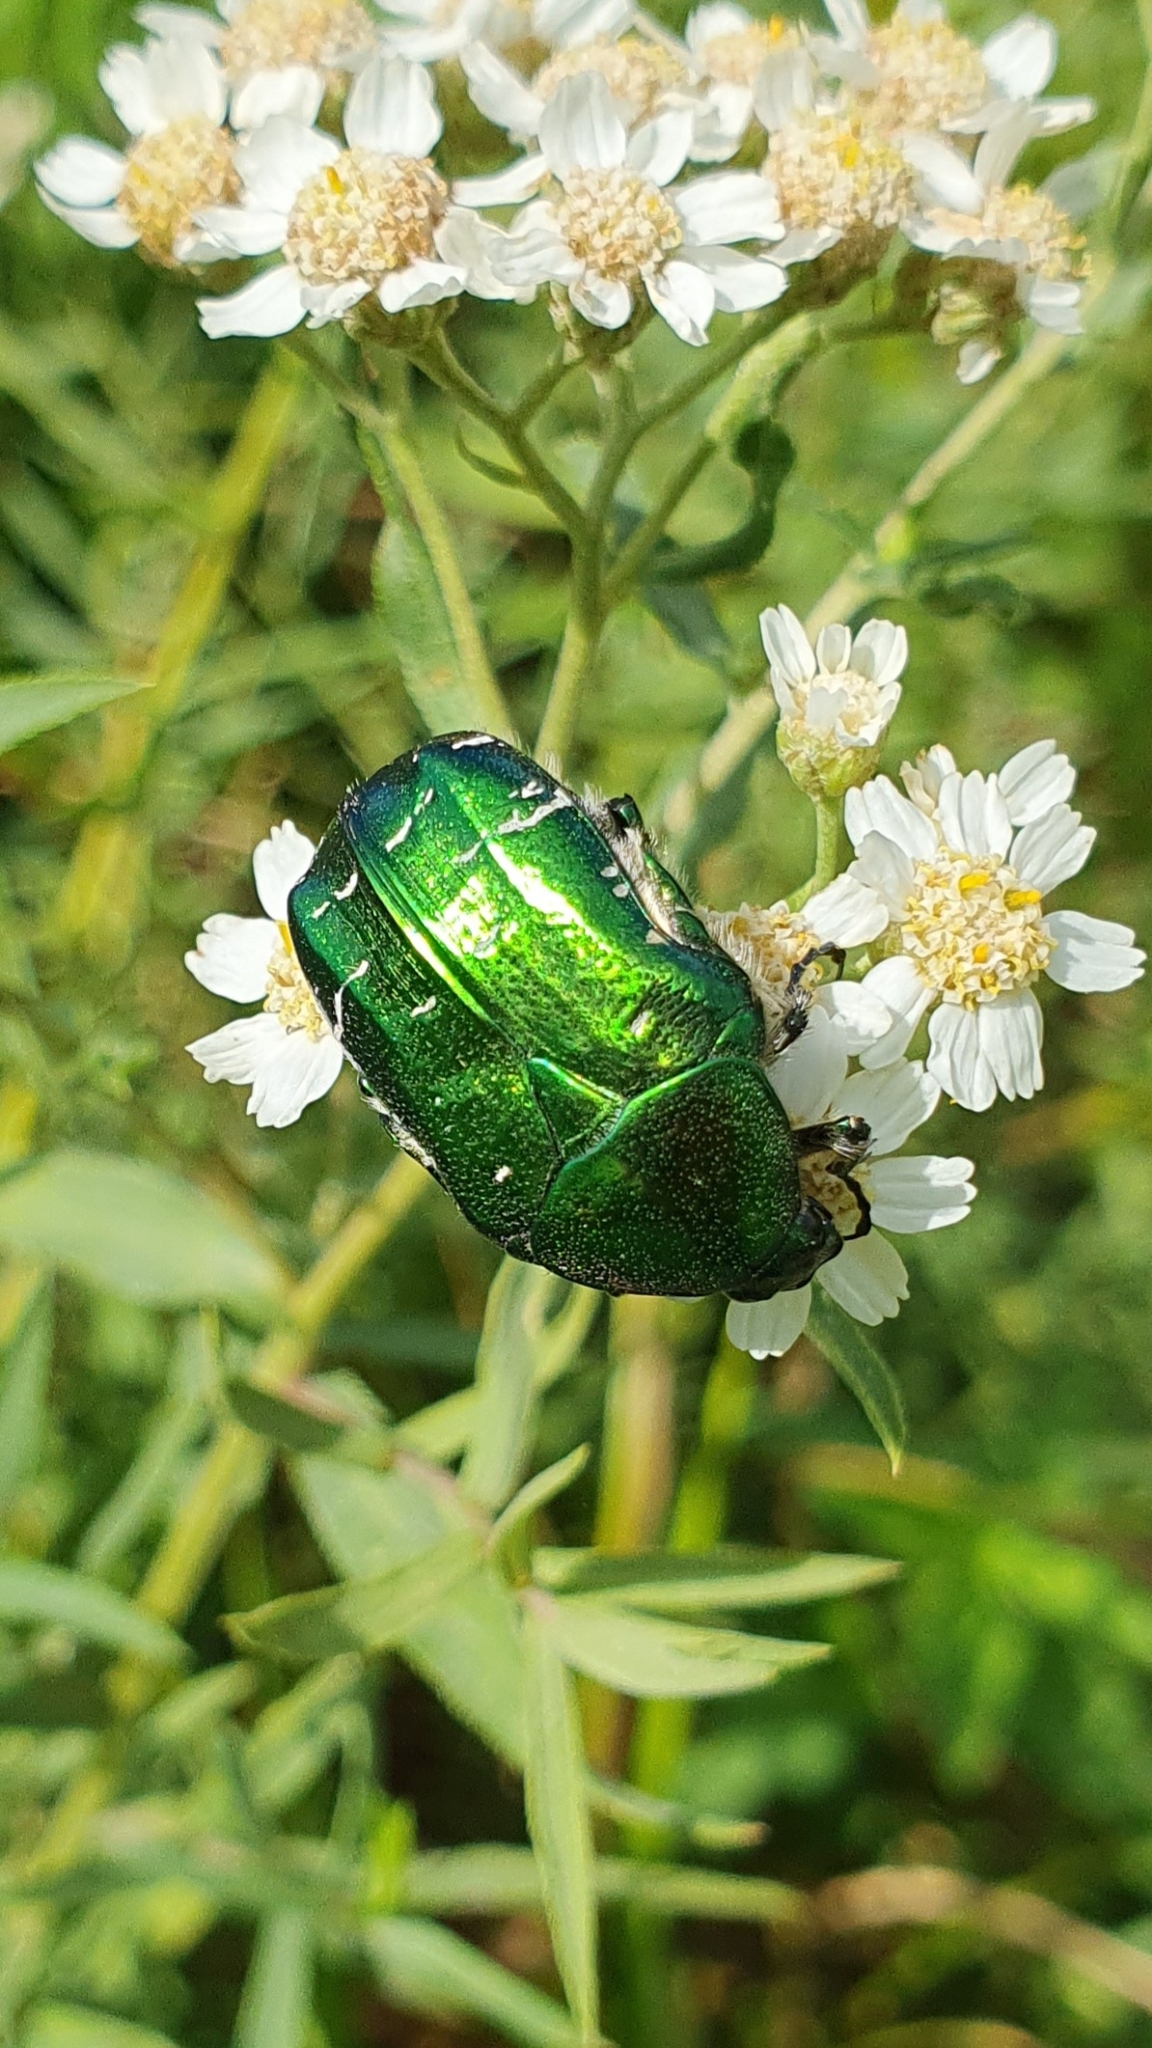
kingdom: Animalia
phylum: Arthropoda
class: Insecta
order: Coleoptera
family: Scarabaeidae
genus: Cetonia
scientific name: Cetonia aurata
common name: Rose chafer
